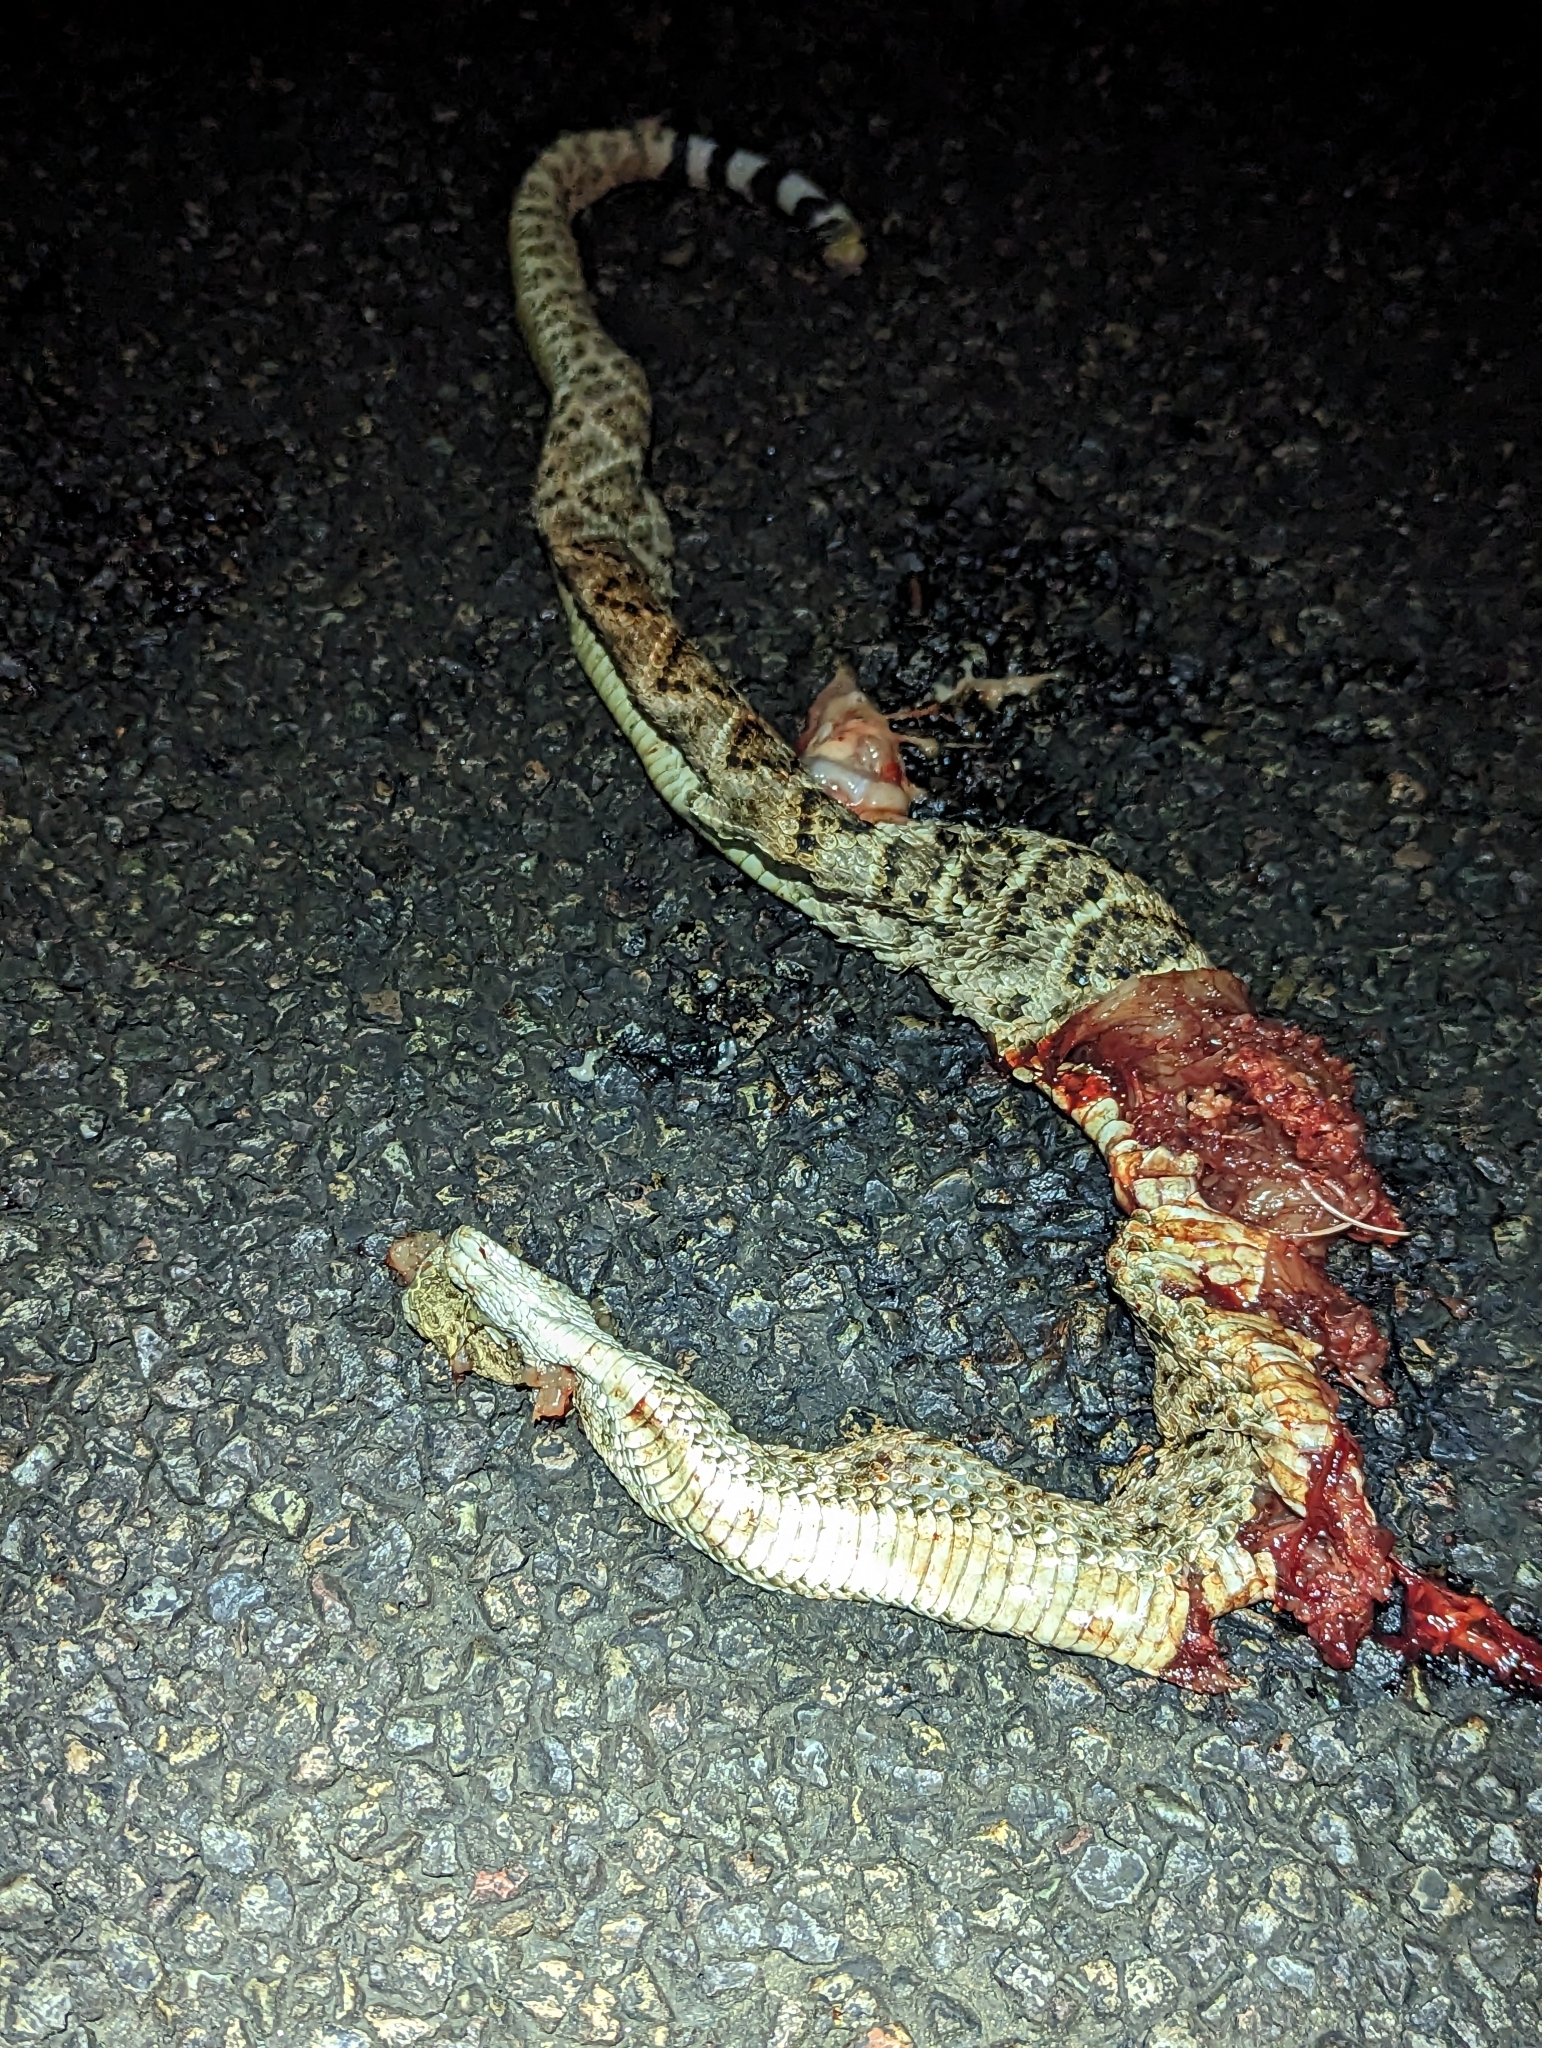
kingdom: Animalia
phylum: Chordata
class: Squamata
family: Viperidae
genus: Crotalus
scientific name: Crotalus atrox
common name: Western diamond-backed rattlesnake
